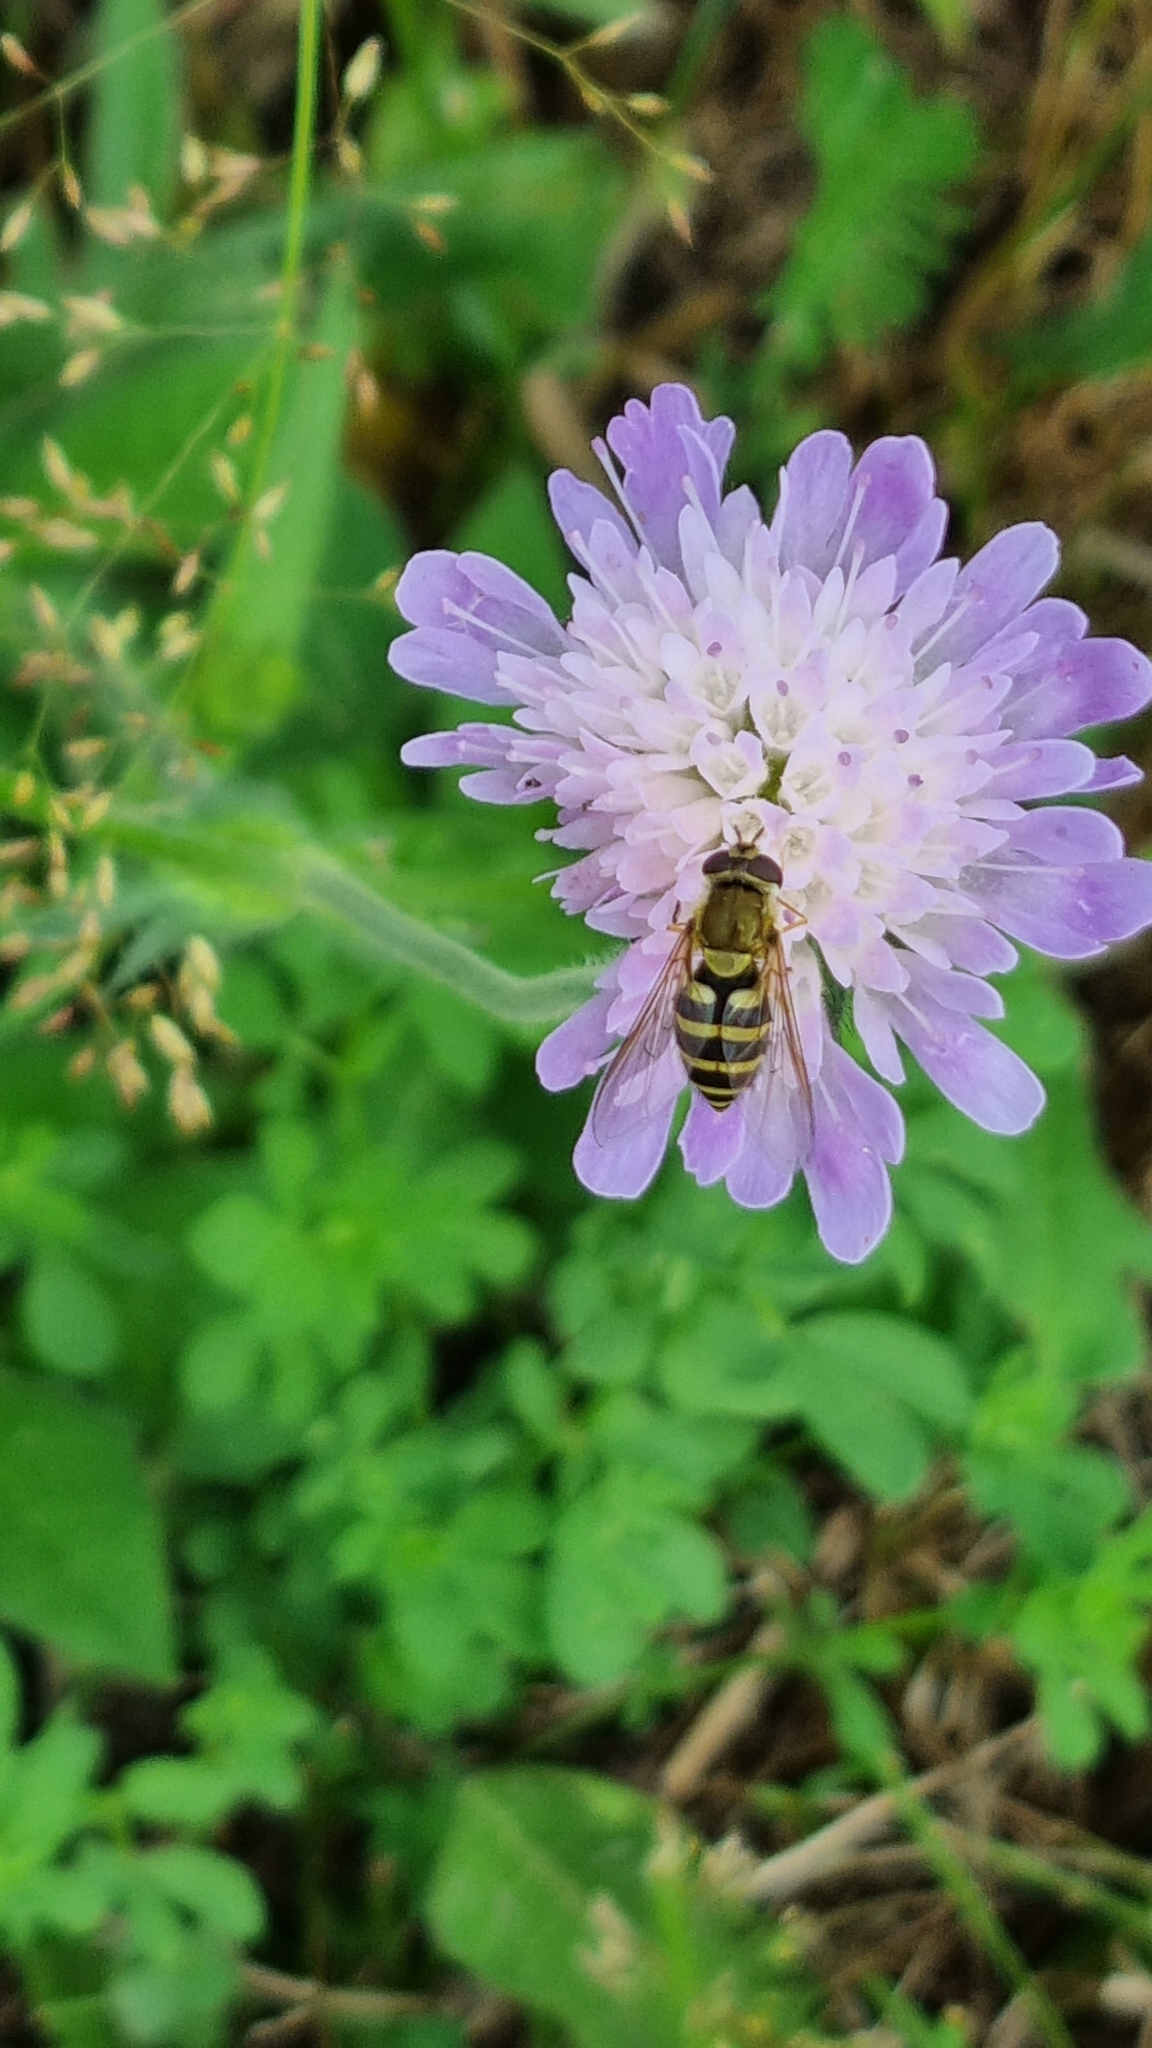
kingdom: Animalia
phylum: Arthropoda
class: Insecta
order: Diptera
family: Syrphidae
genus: Syrphus
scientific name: Syrphus
